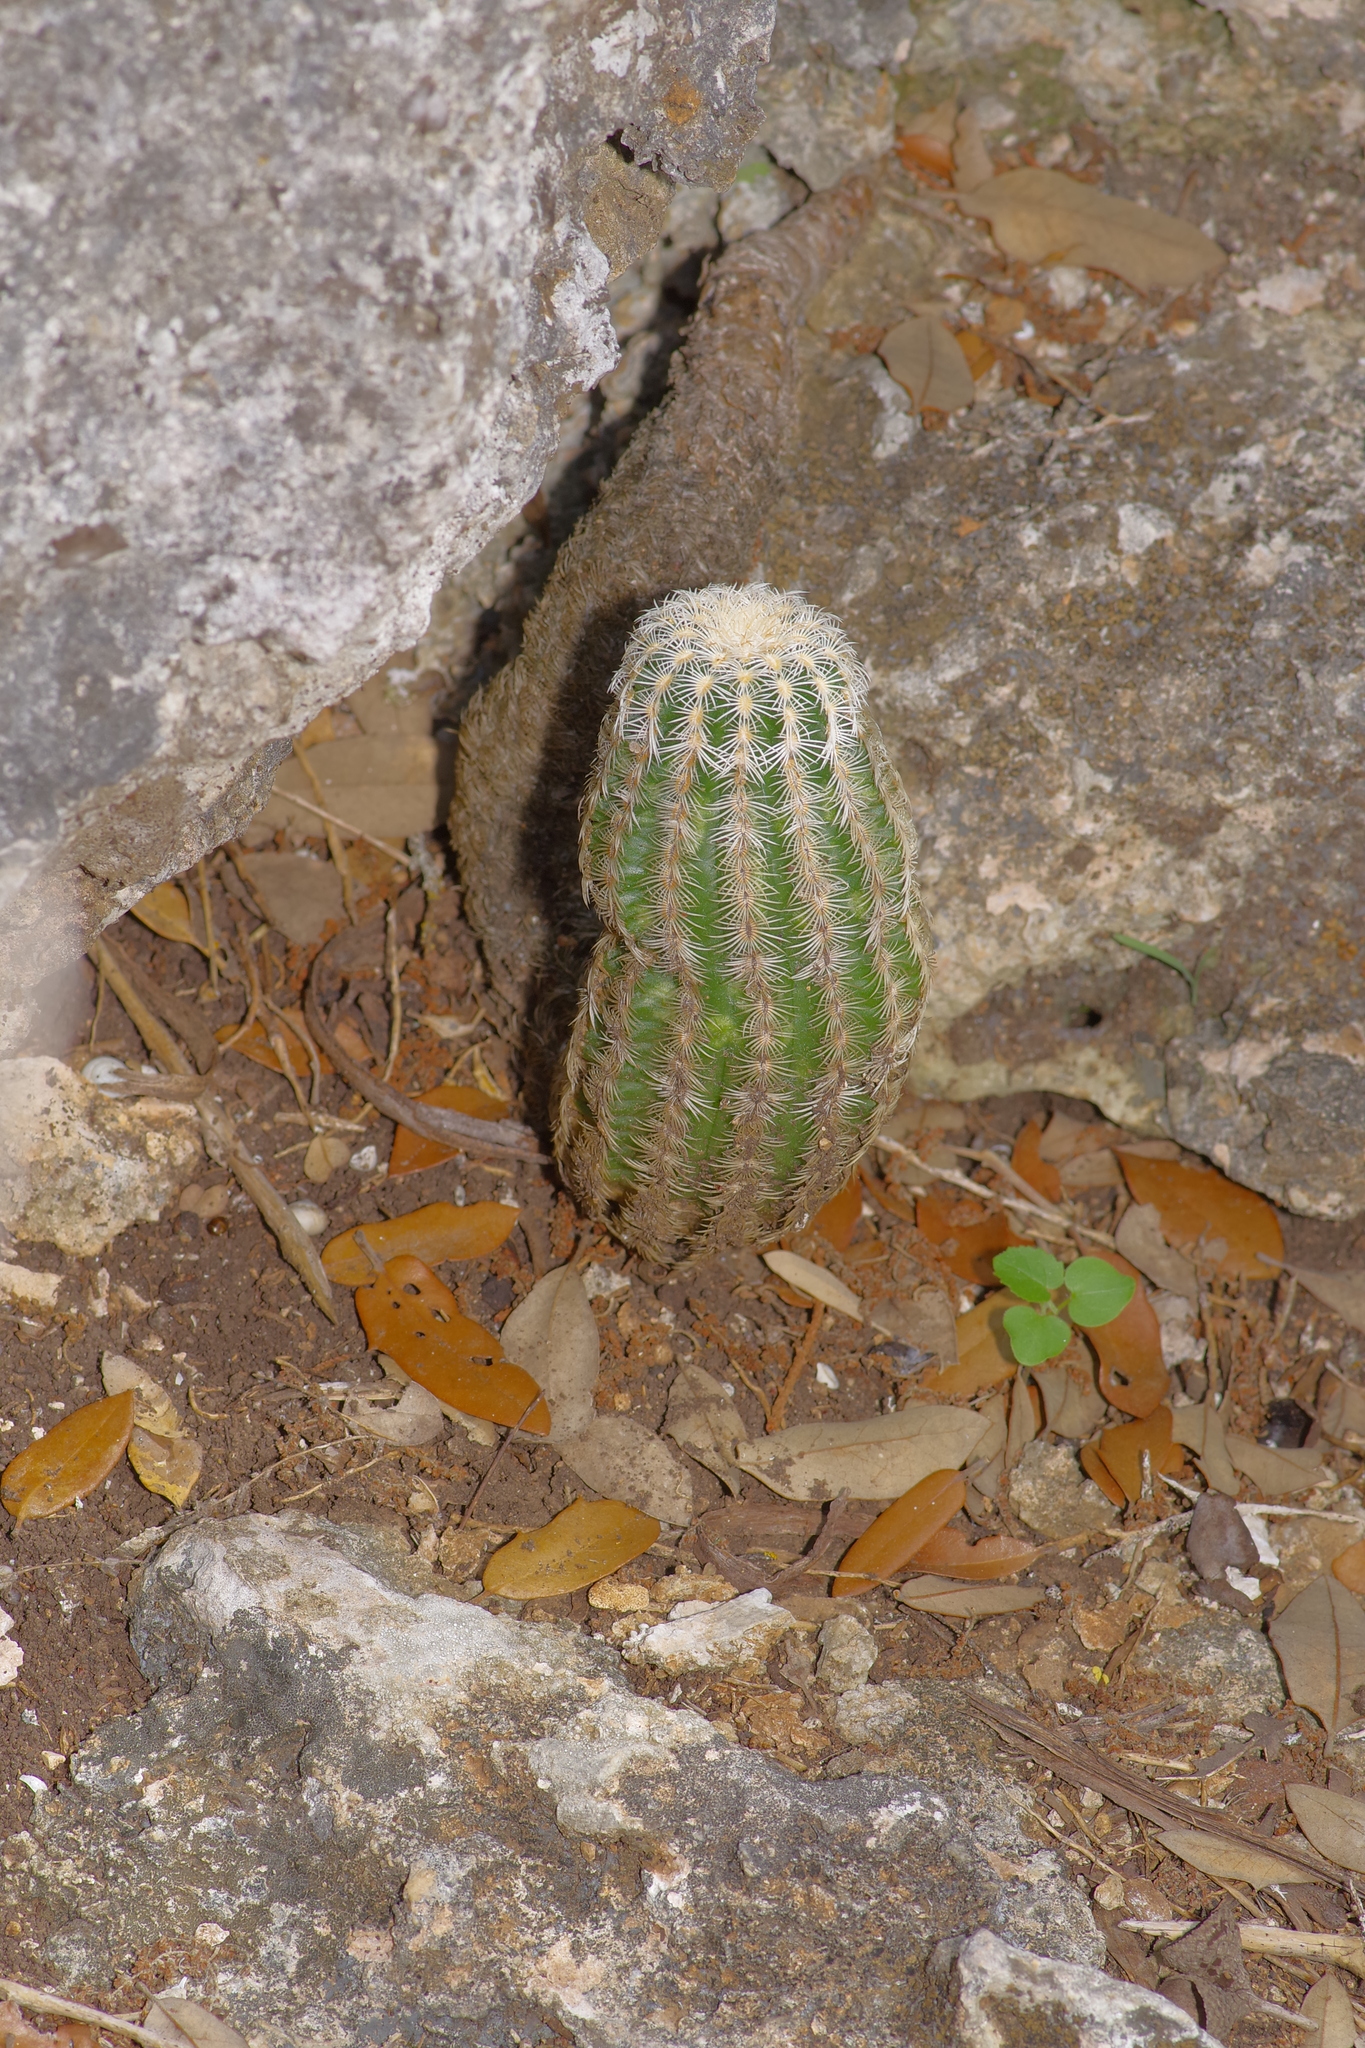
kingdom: Plantae
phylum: Tracheophyta
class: Magnoliopsida
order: Caryophyllales
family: Cactaceae
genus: Echinocereus
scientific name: Echinocereus reichenbachii
